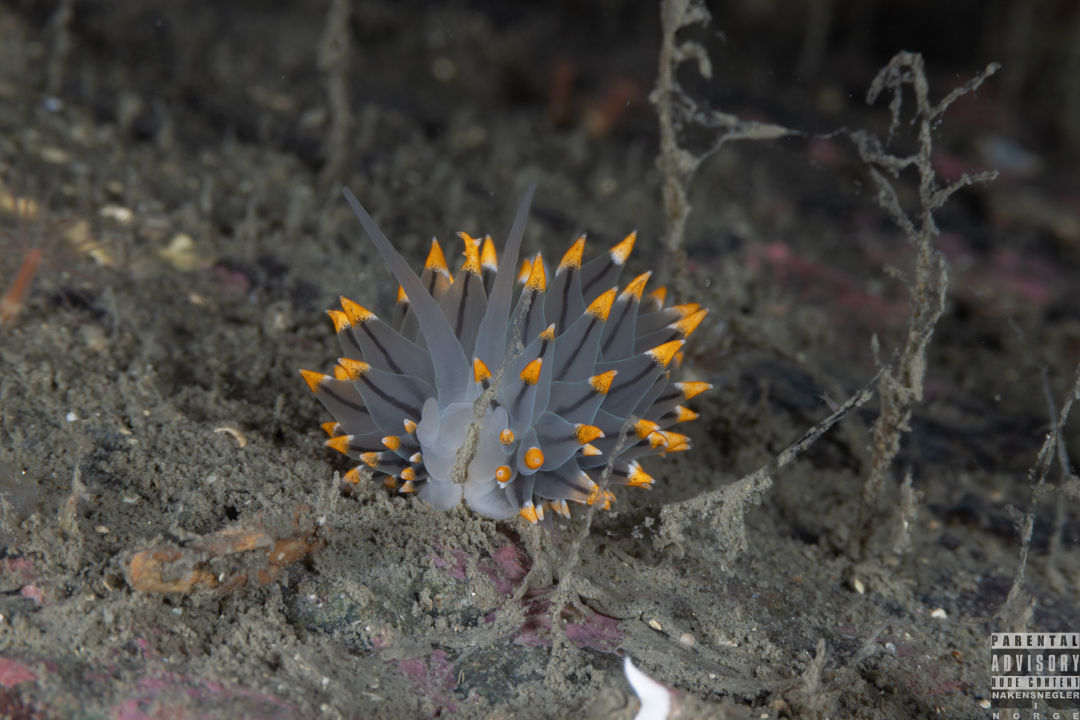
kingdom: Animalia
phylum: Mollusca
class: Gastropoda
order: Nudibranchia
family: Eubranchidae
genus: Eubranchus
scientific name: Eubranchus tricolor
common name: Painted balloon aeolis
